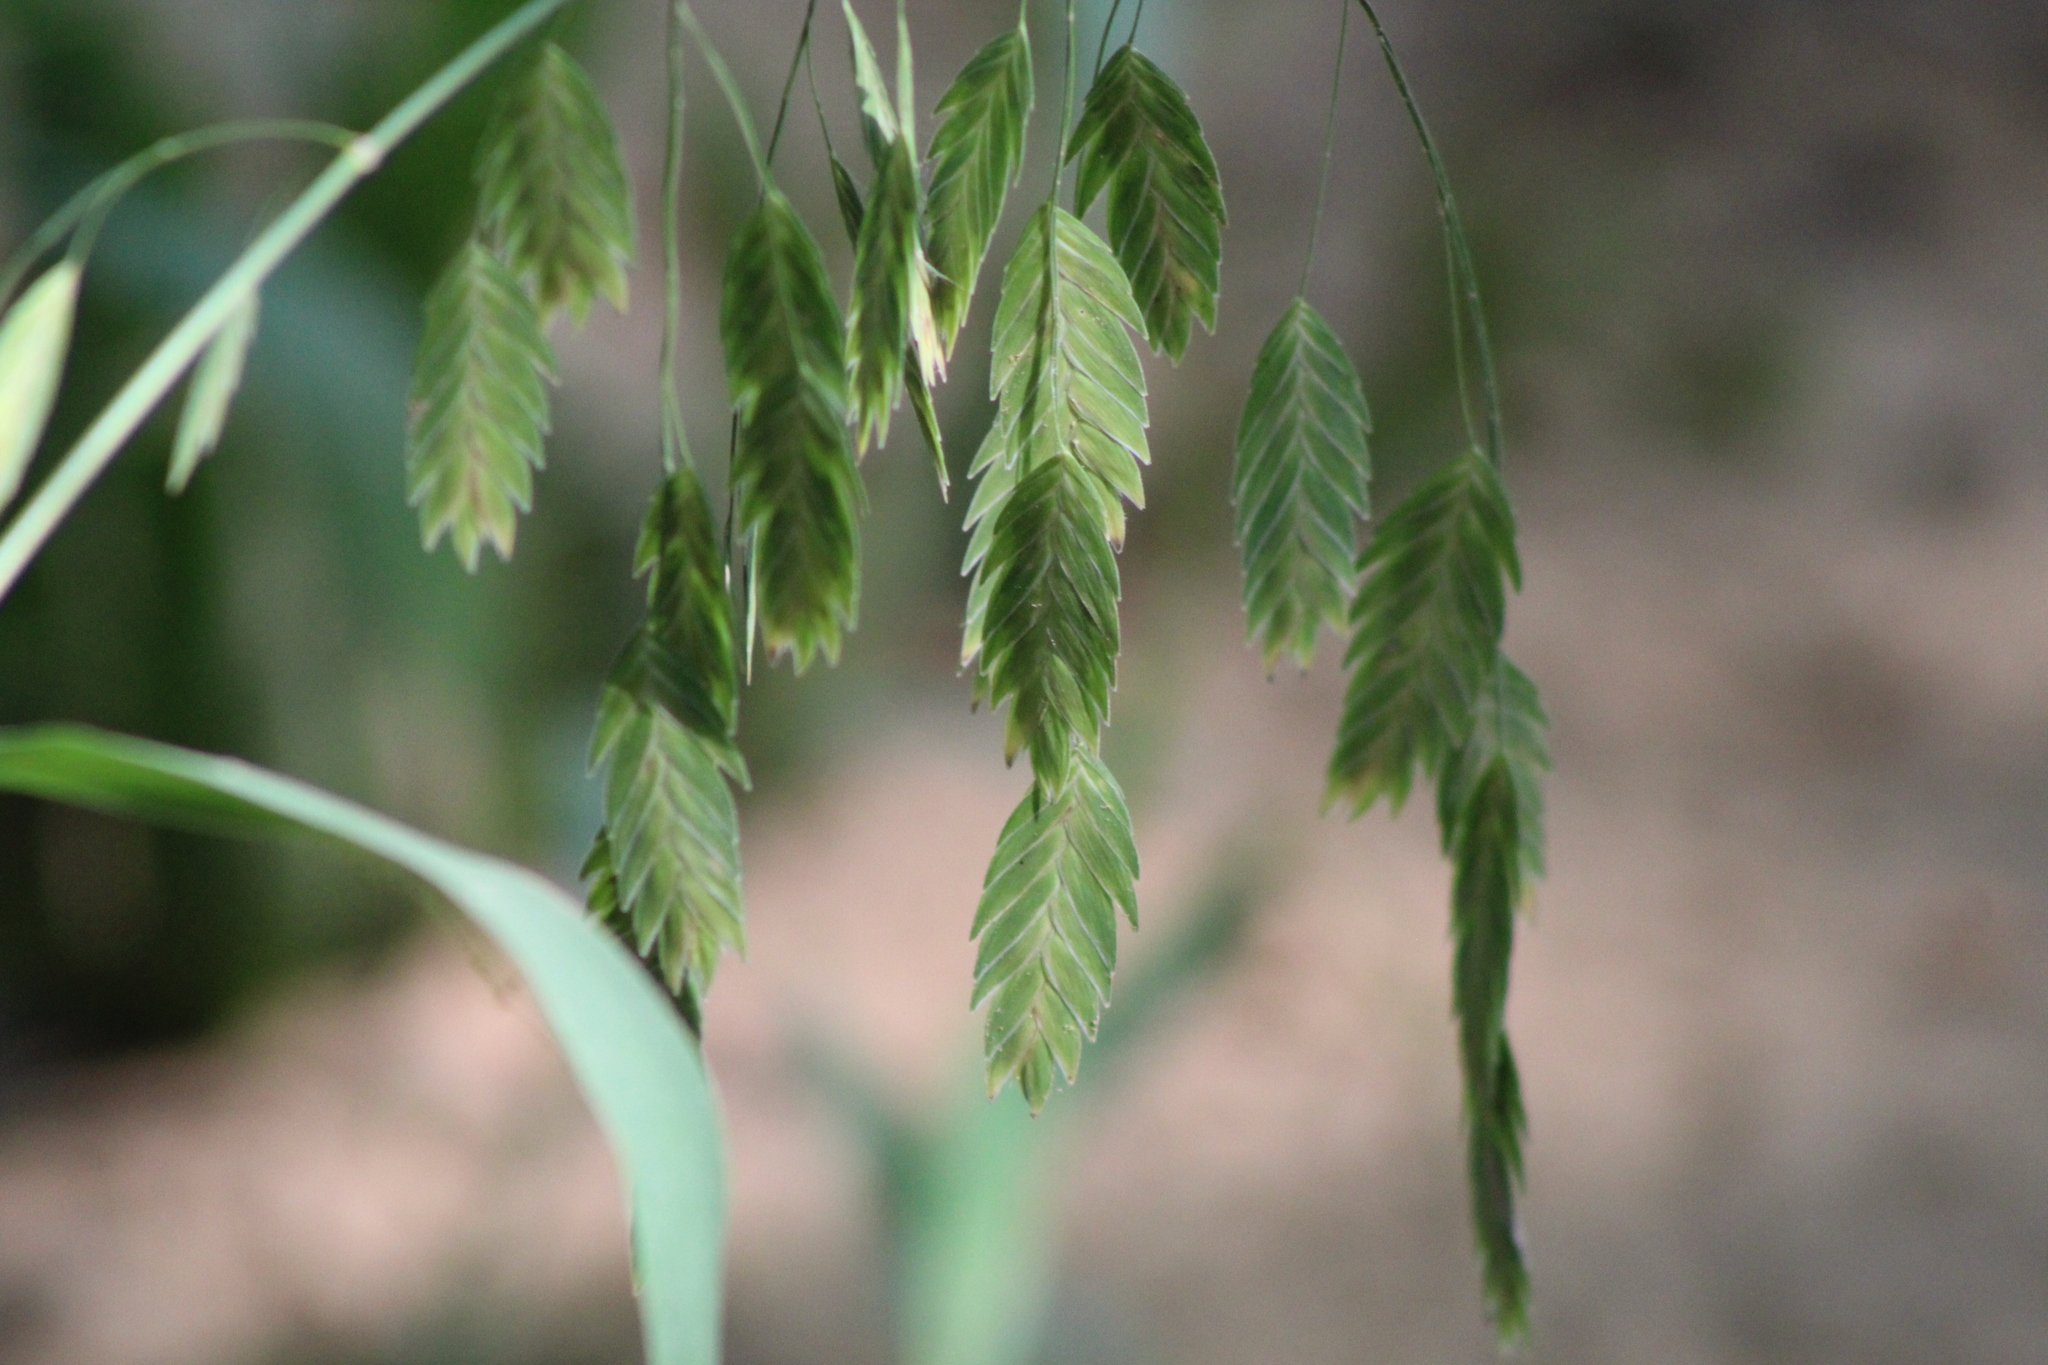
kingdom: Plantae
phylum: Tracheophyta
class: Liliopsida
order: Poales
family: Poaceae
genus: Chasmanthium
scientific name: Chasmanthium latifolium
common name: Broad-leaved chasmanthium
